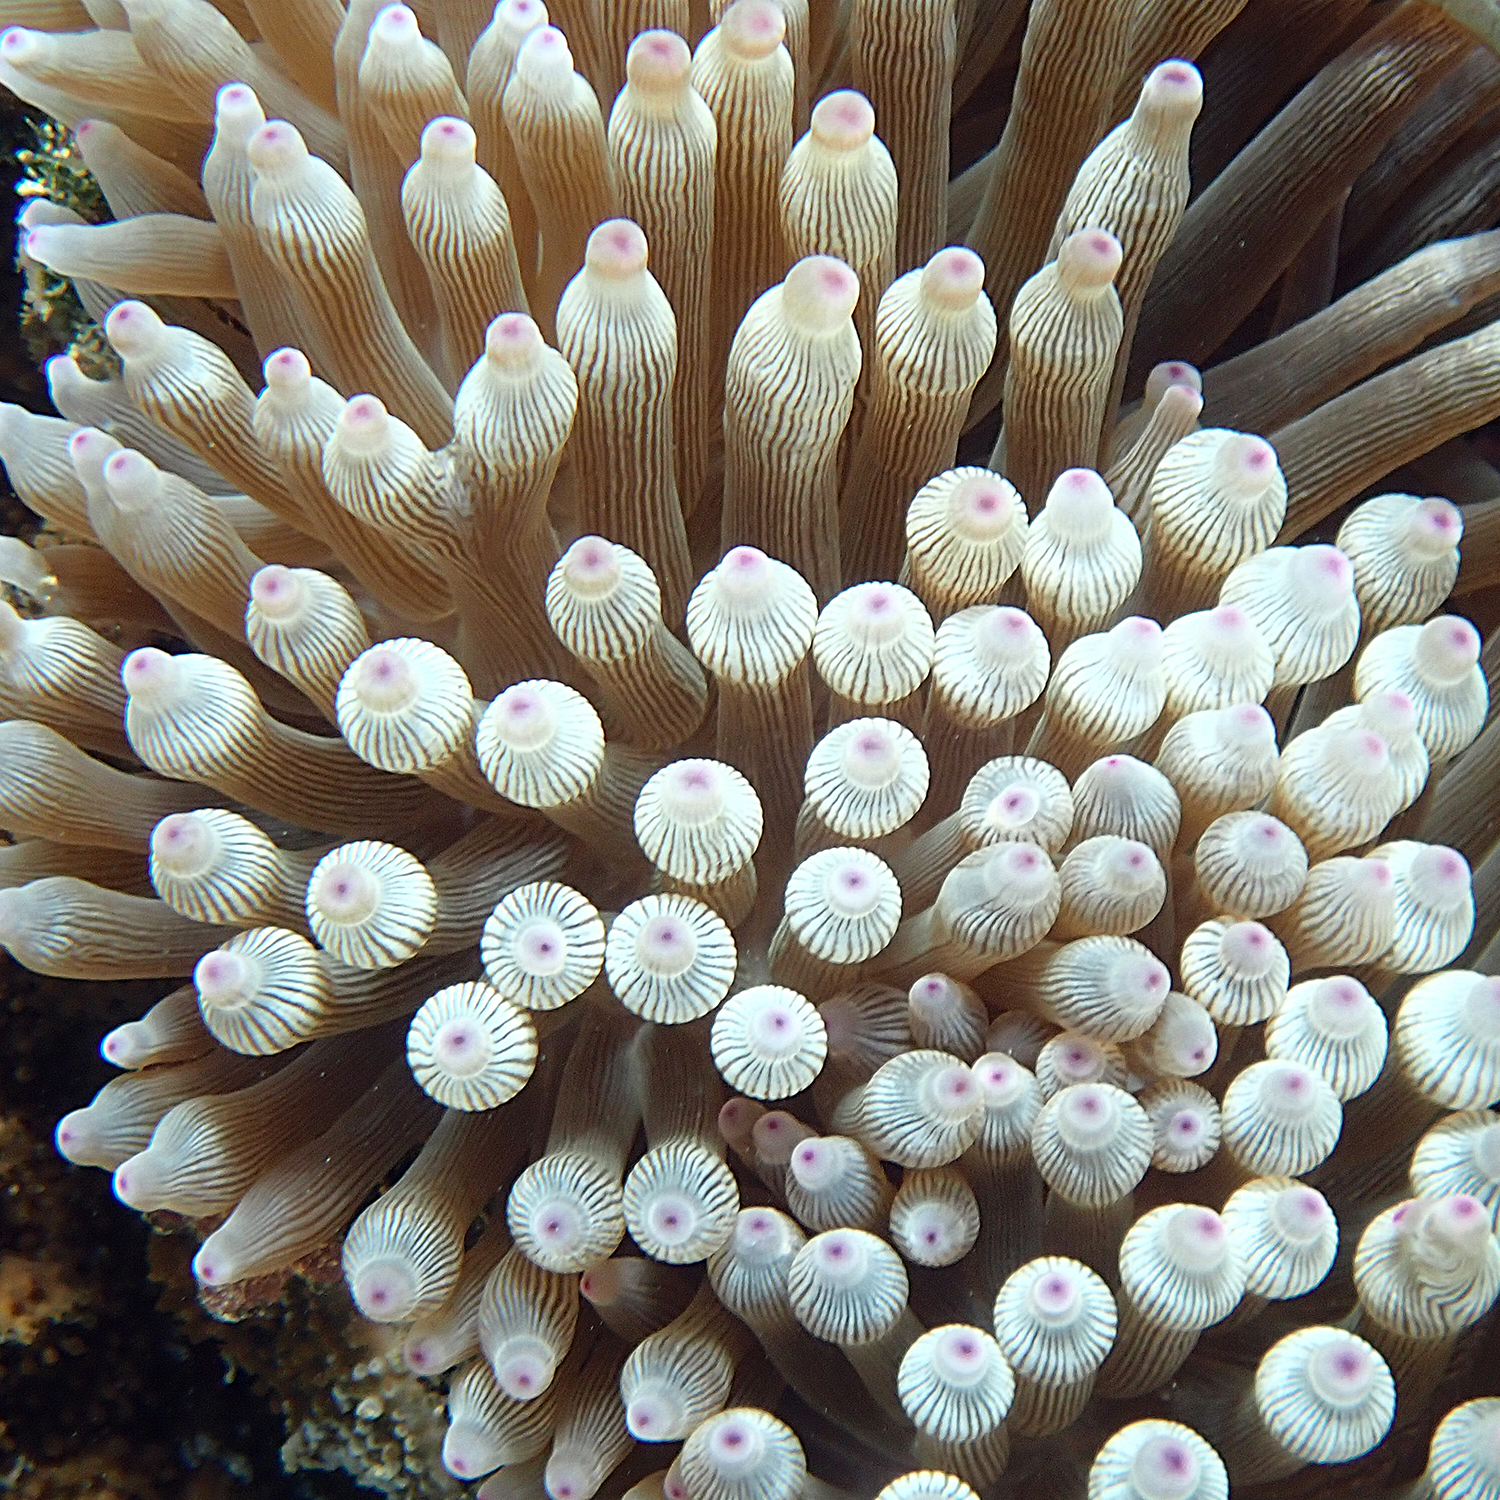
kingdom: Animalia
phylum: Cnidaria
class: Anthozoa
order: Actiniaria
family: Actiniidae
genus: Entacmaea
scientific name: Entacmaea quadricolor
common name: Bulb tentacle sea anemone
